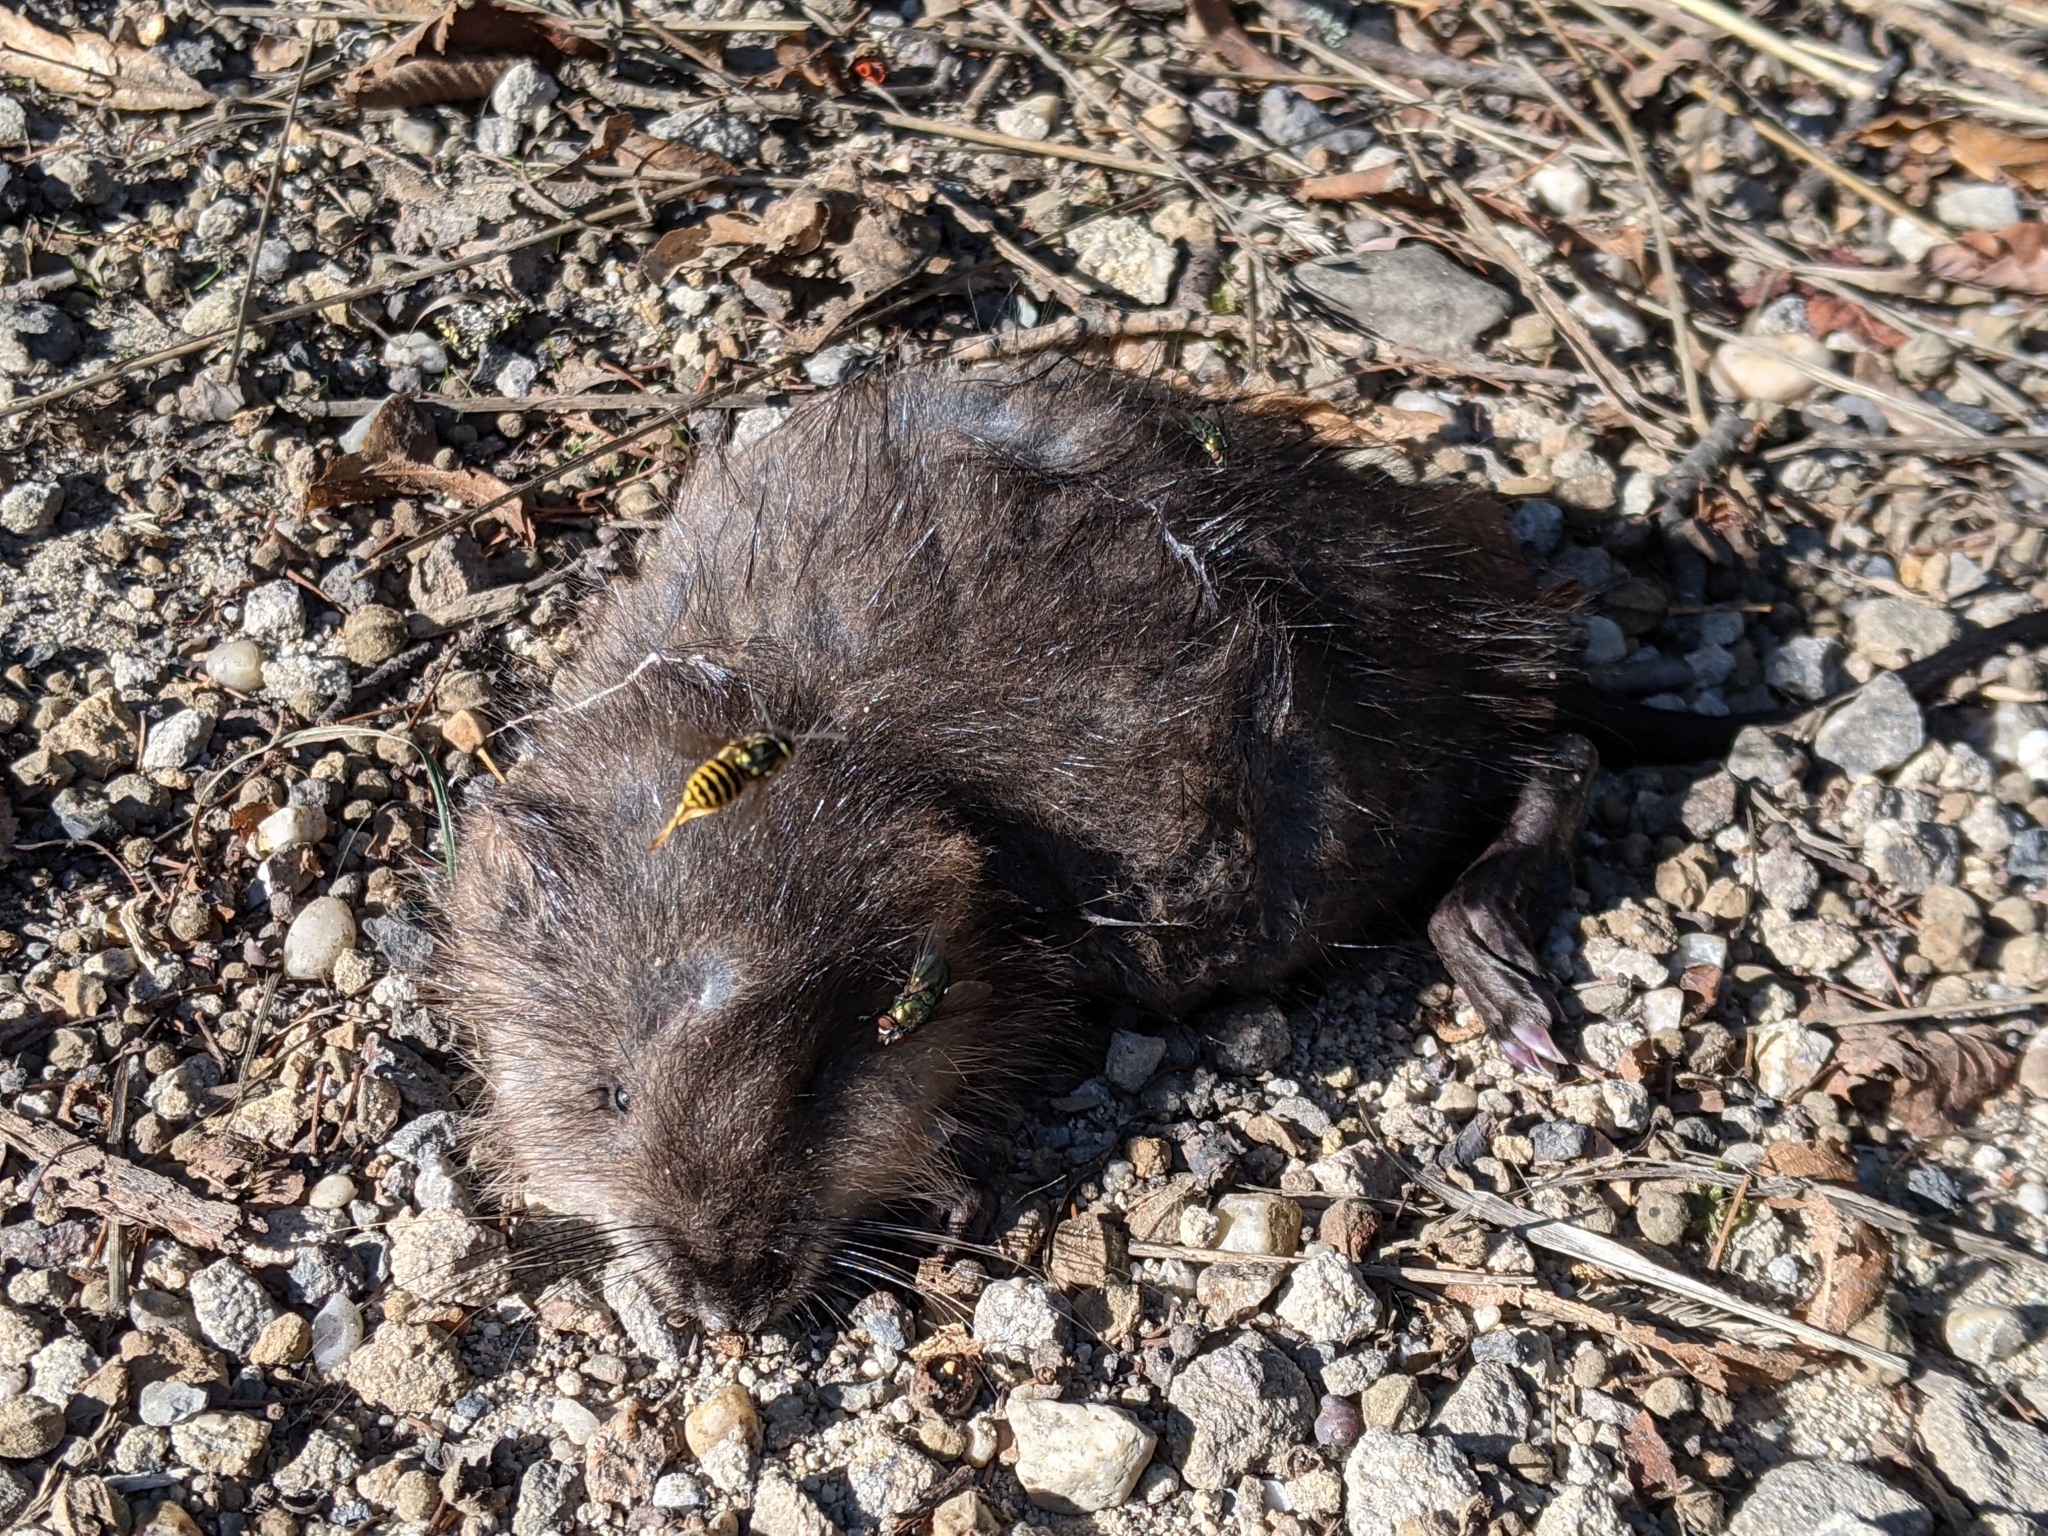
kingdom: Animalia
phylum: Chordata
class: Mammalia
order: Rodentia
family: Cricetidae
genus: Ondatra
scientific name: Ondatra zibethicus
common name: Muskrat
